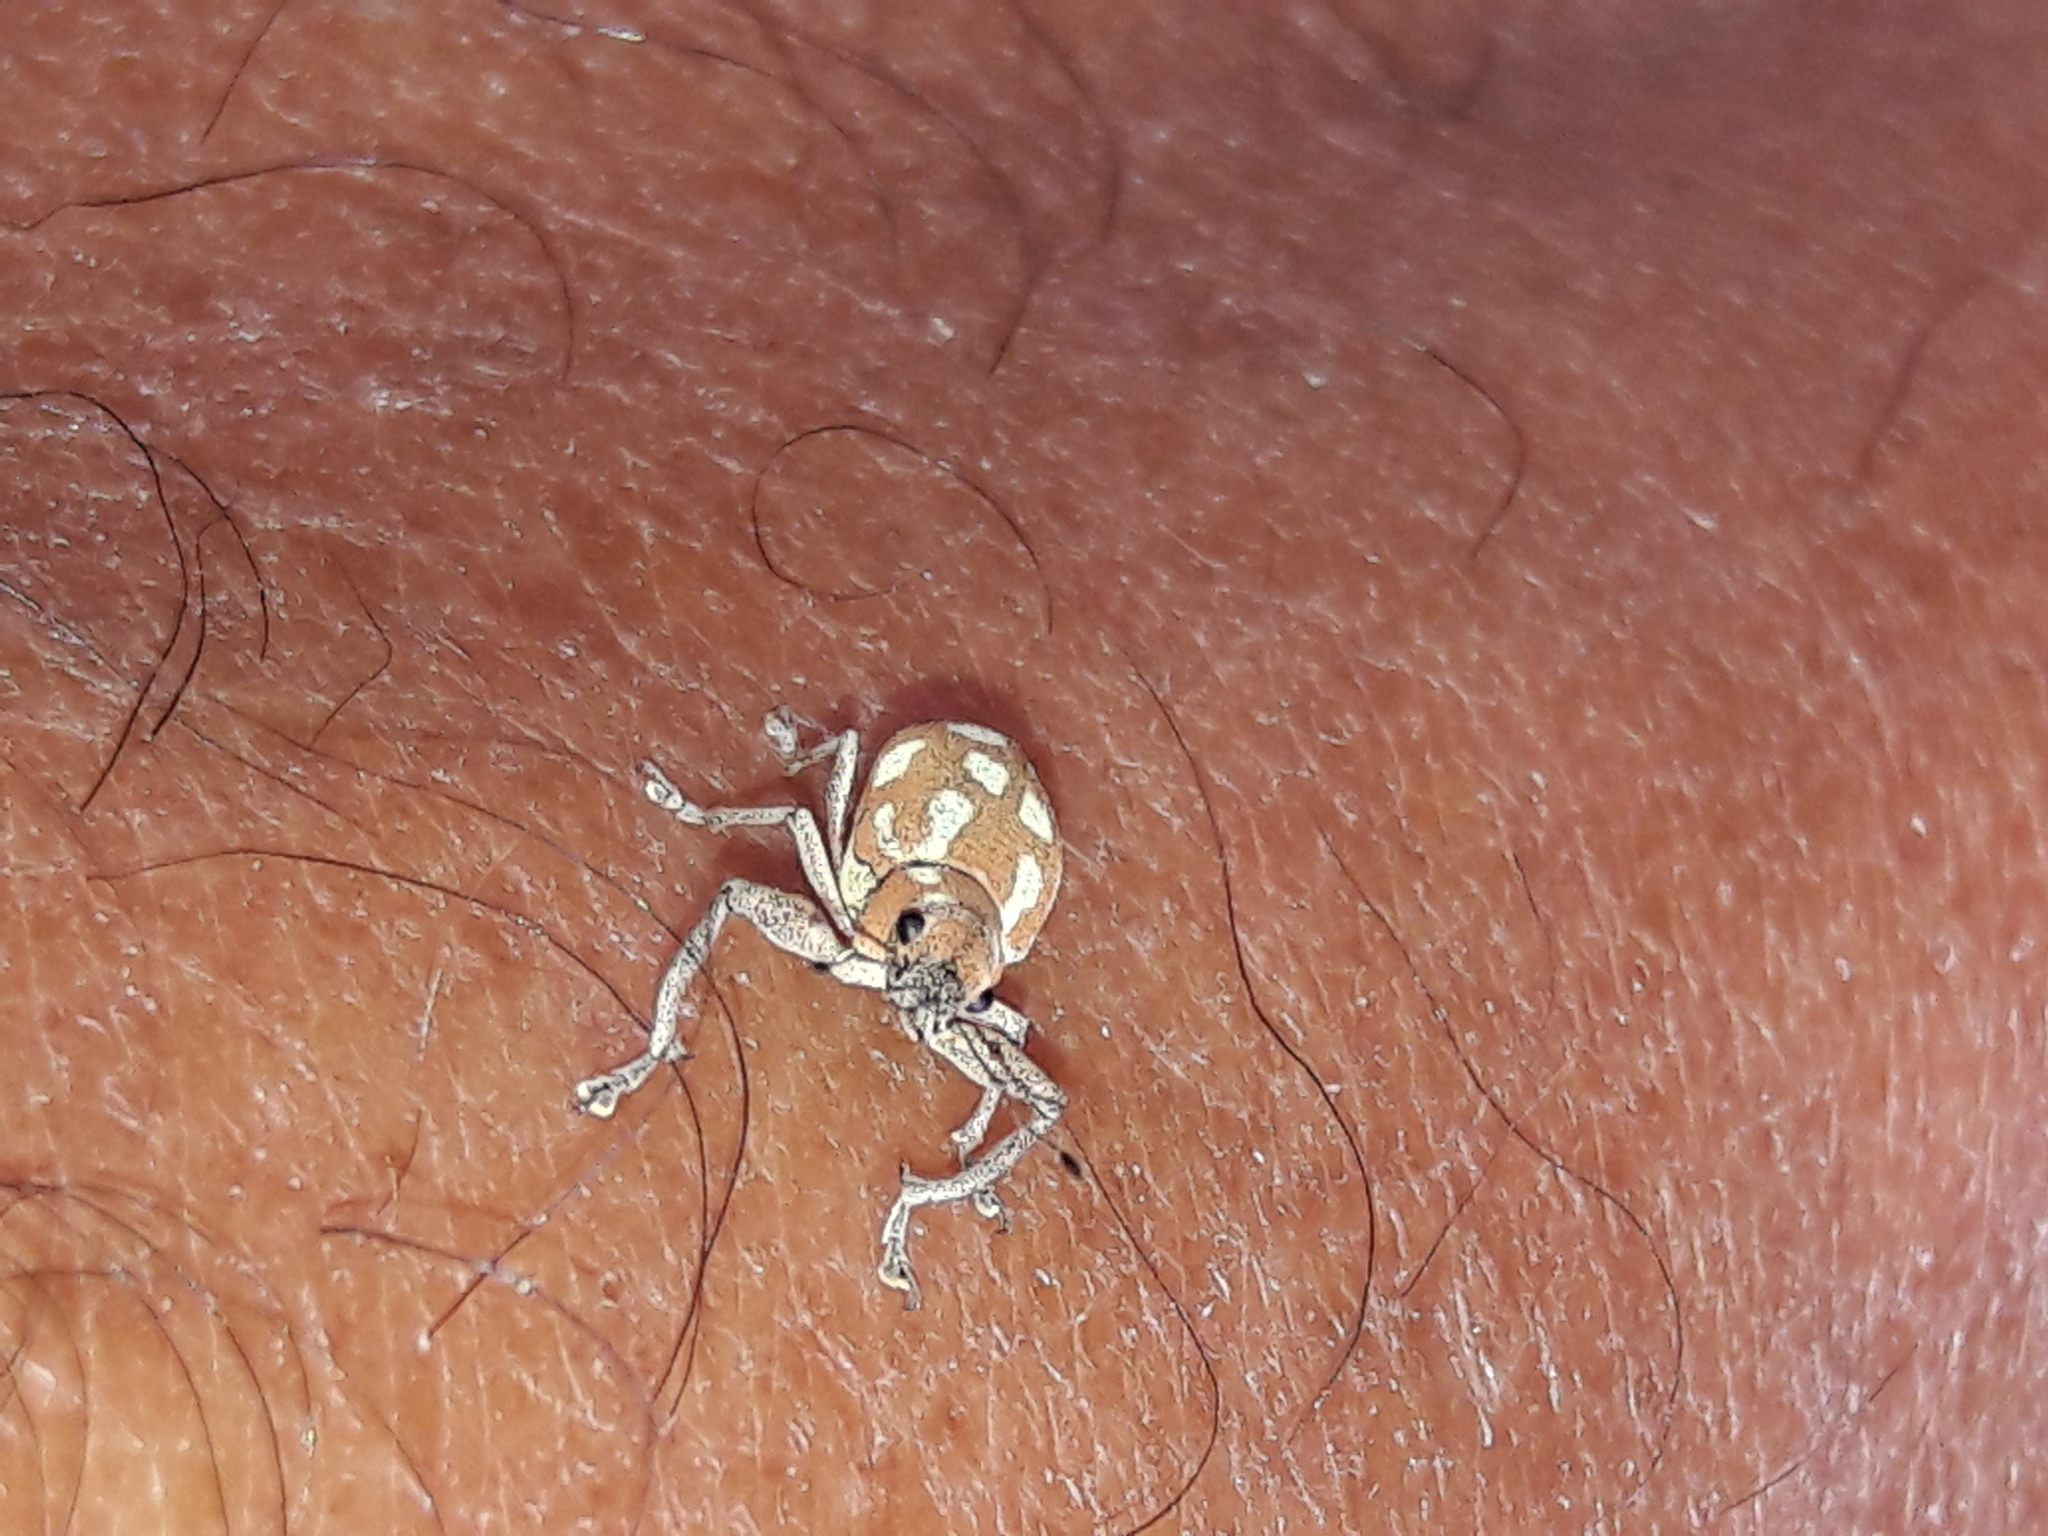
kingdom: Animalia
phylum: Arthropoda
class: Insecta
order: Coleoptera
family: Curculionidae
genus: Naupactus
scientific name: Naupactus bellus
